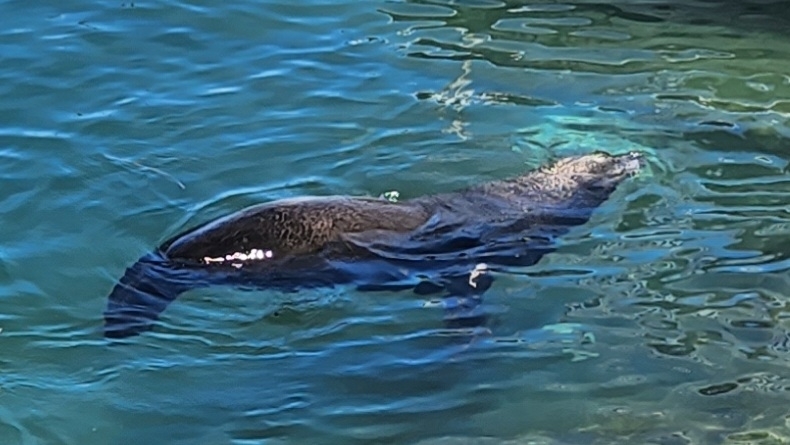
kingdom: Animalia
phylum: Chordata
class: Mammalia
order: Carnivora
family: Otariidae
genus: Zalophus
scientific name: Zalophus californianus
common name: California sea lion
